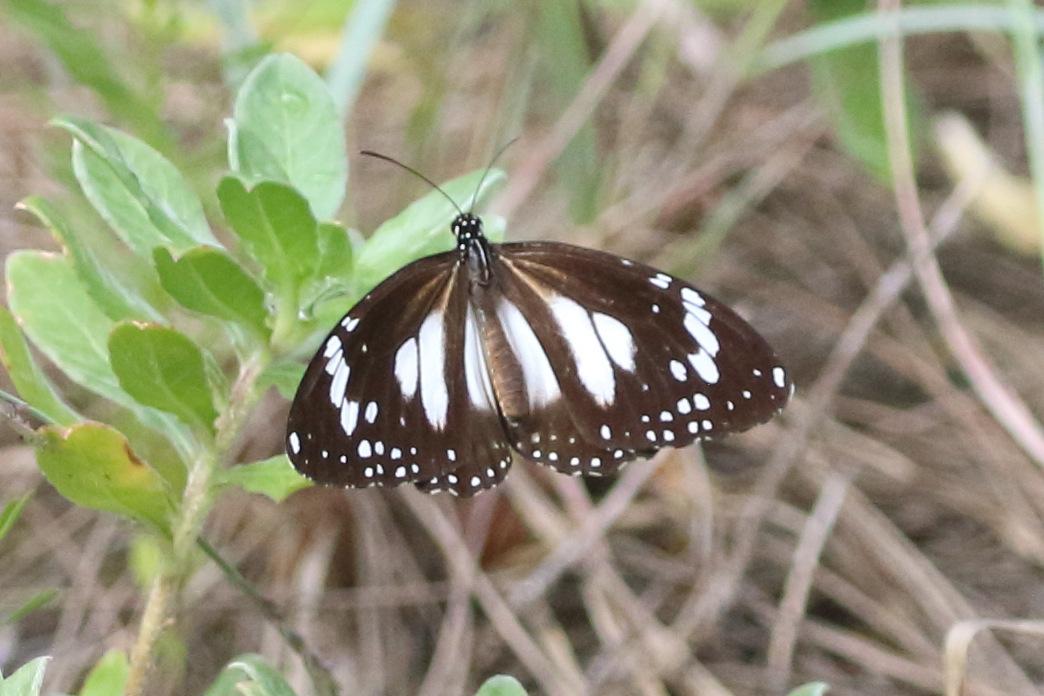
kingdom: Animalia
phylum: Arthropoda
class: Insecta
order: Lepidoptera
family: Nymphalidae
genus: Danaus
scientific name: Danaus affinis
